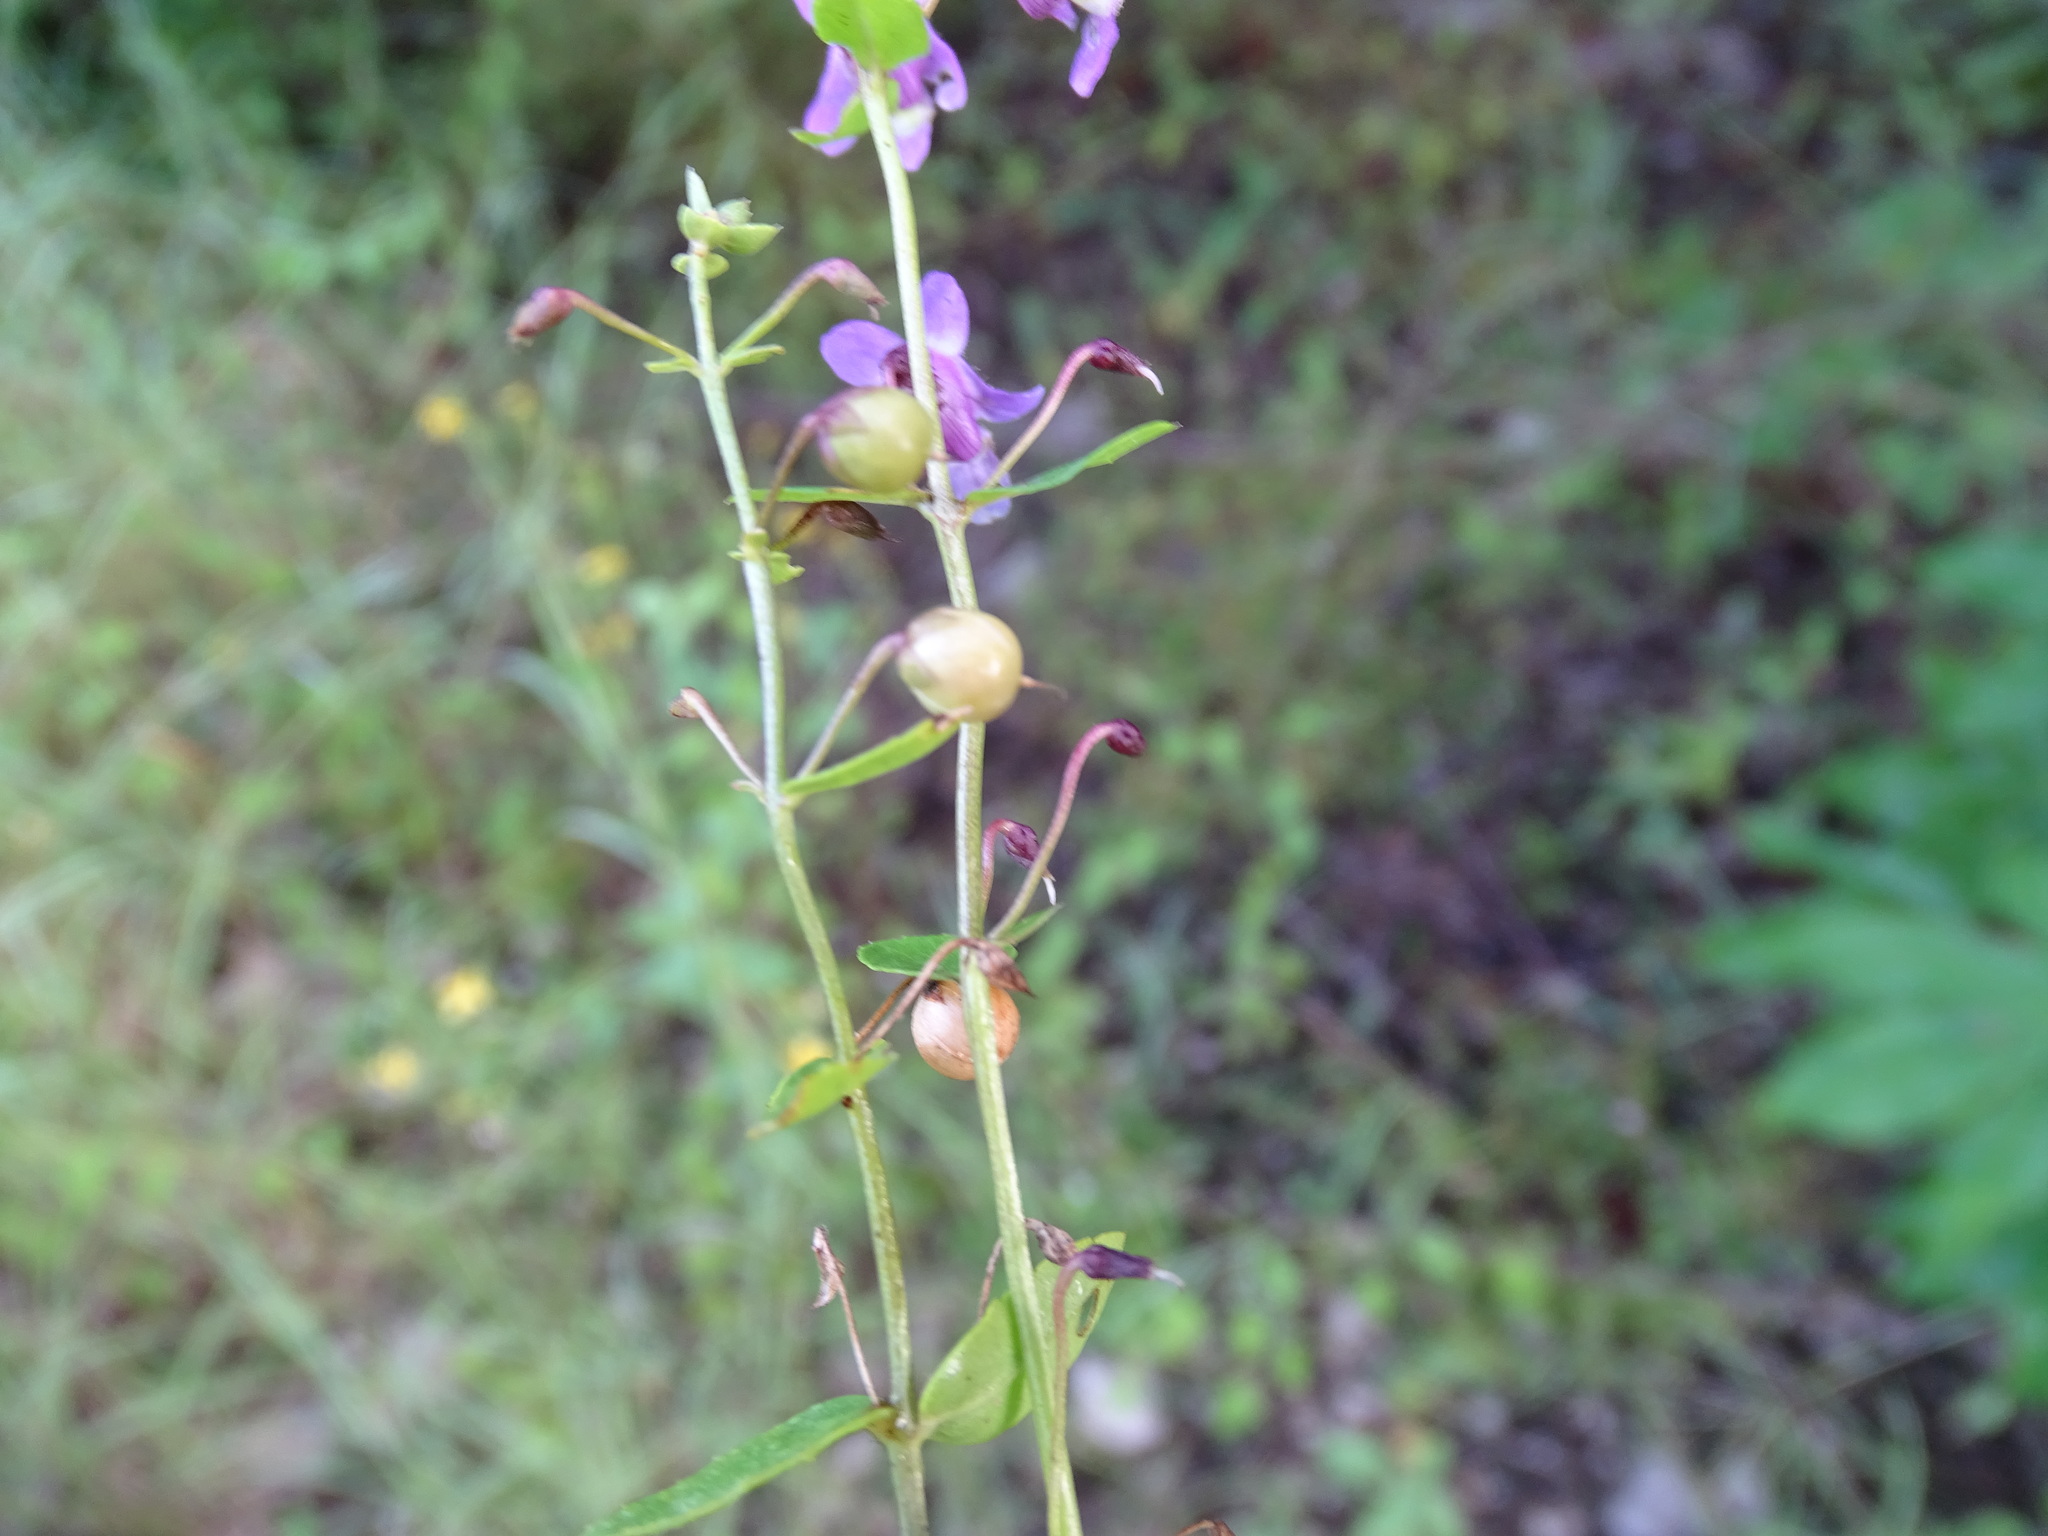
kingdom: Plantae
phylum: Tracheophyta
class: Magnoliopsida
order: Lamiales
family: Plantaginaceae
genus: Angelonia
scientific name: Angelonia angustifolia
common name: Narrowleaf angelon
